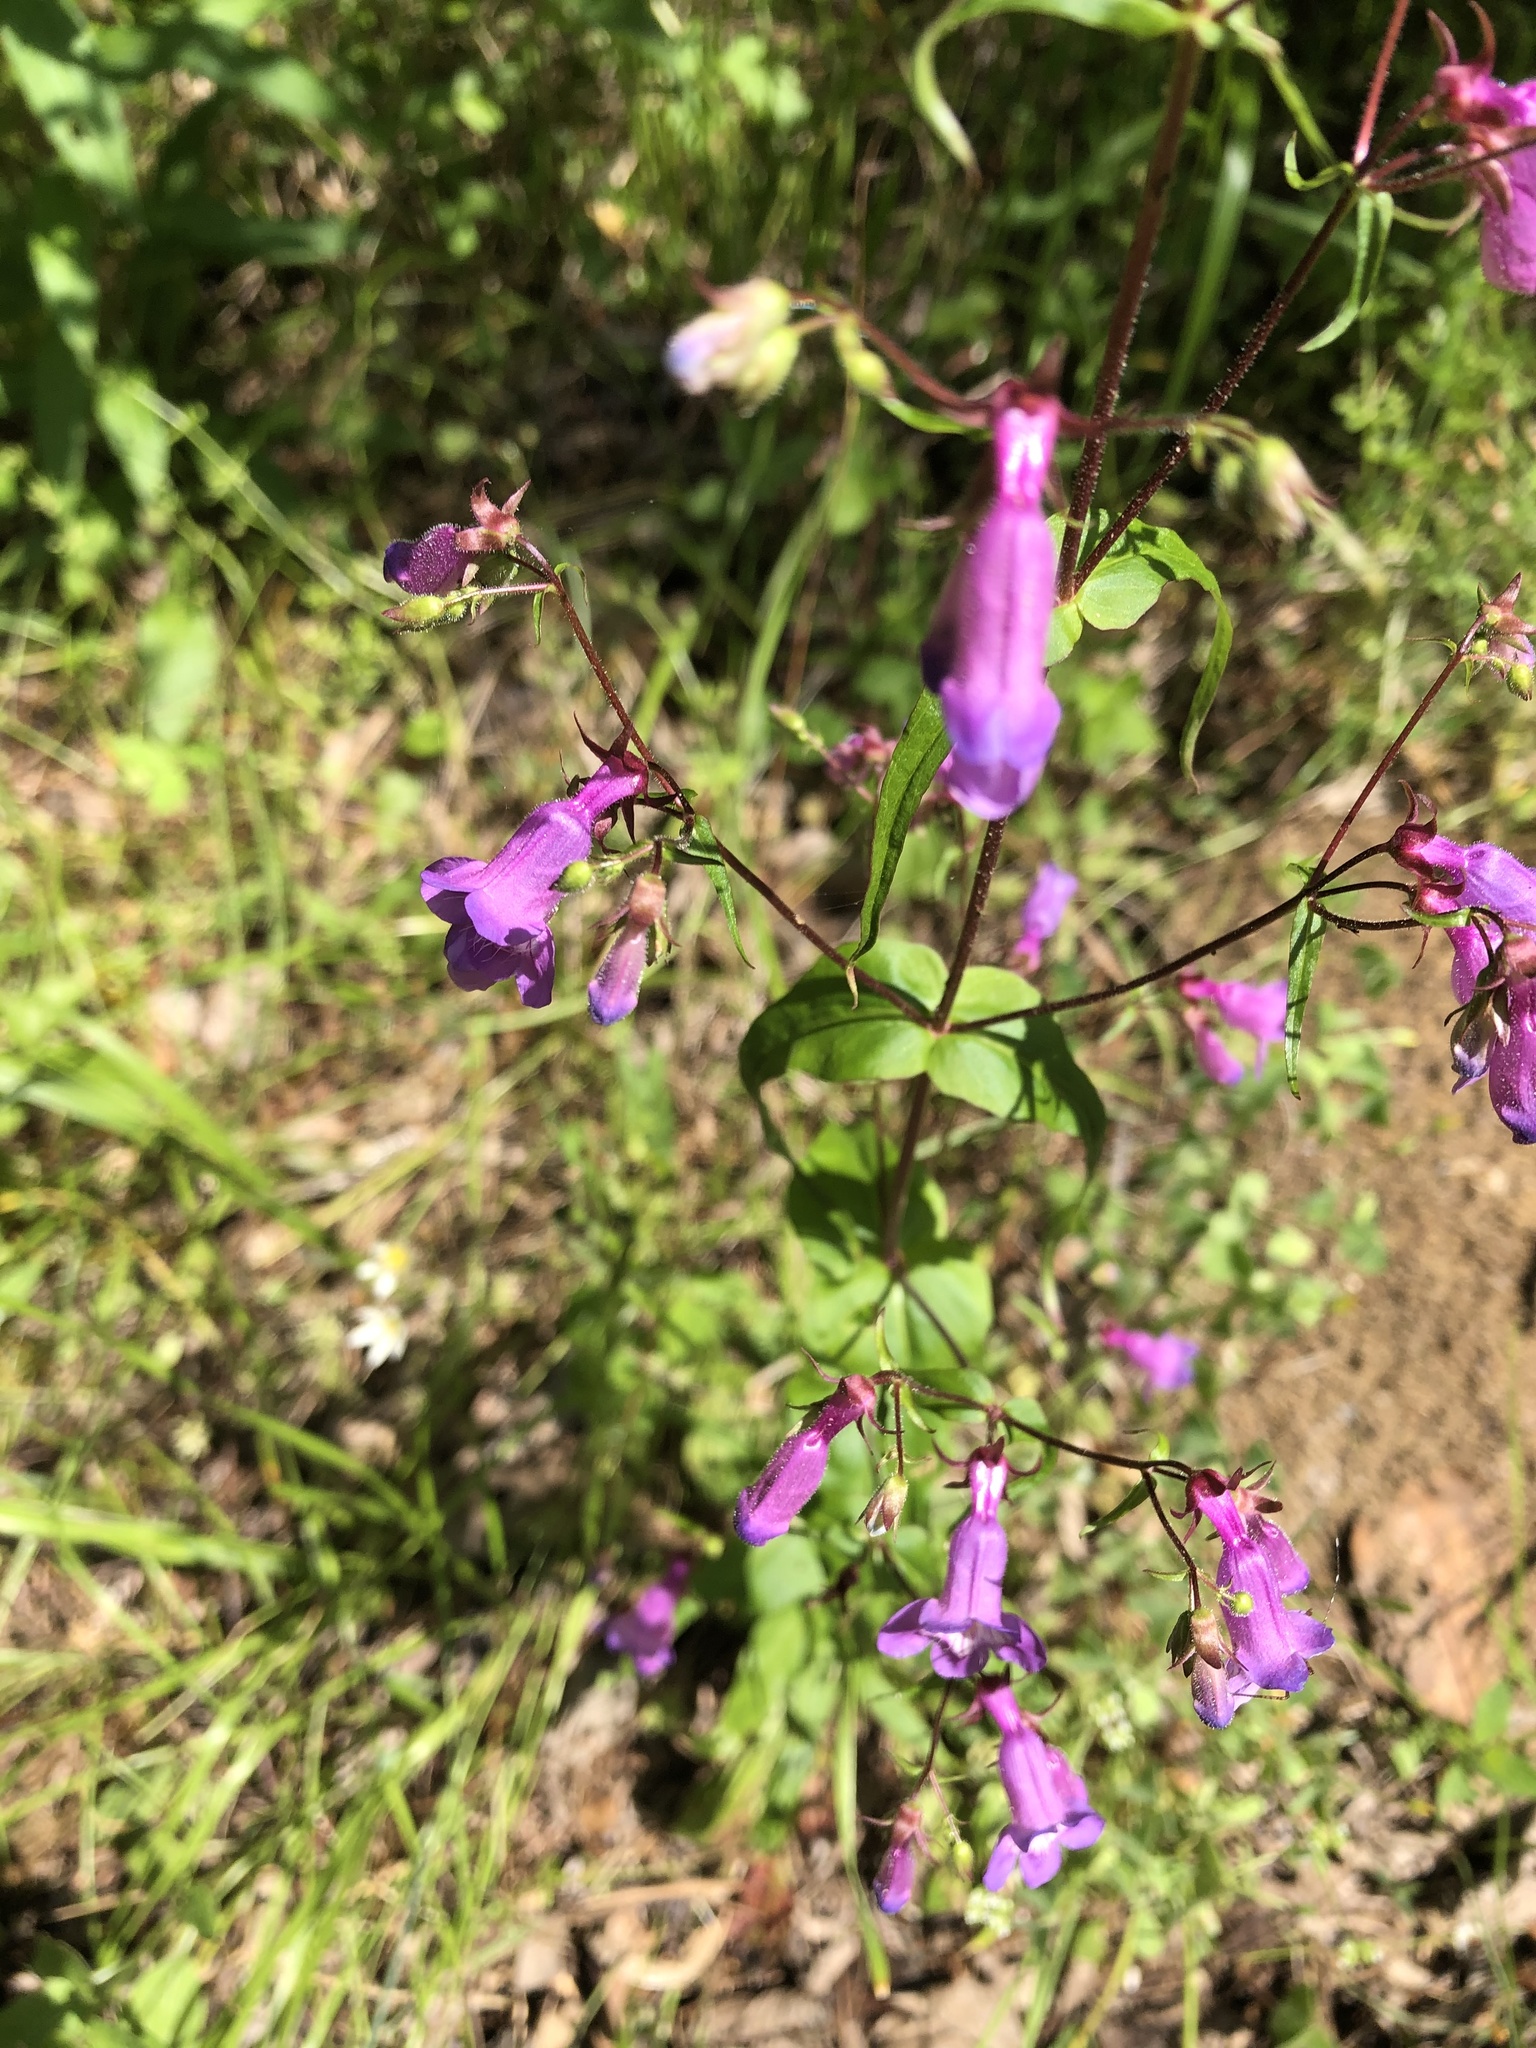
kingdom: Plantae
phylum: Tracheophyta
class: Magnoliopsida
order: Lamiales
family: Plantaginaceae
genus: Penstemon
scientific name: Penstemon tenuis
